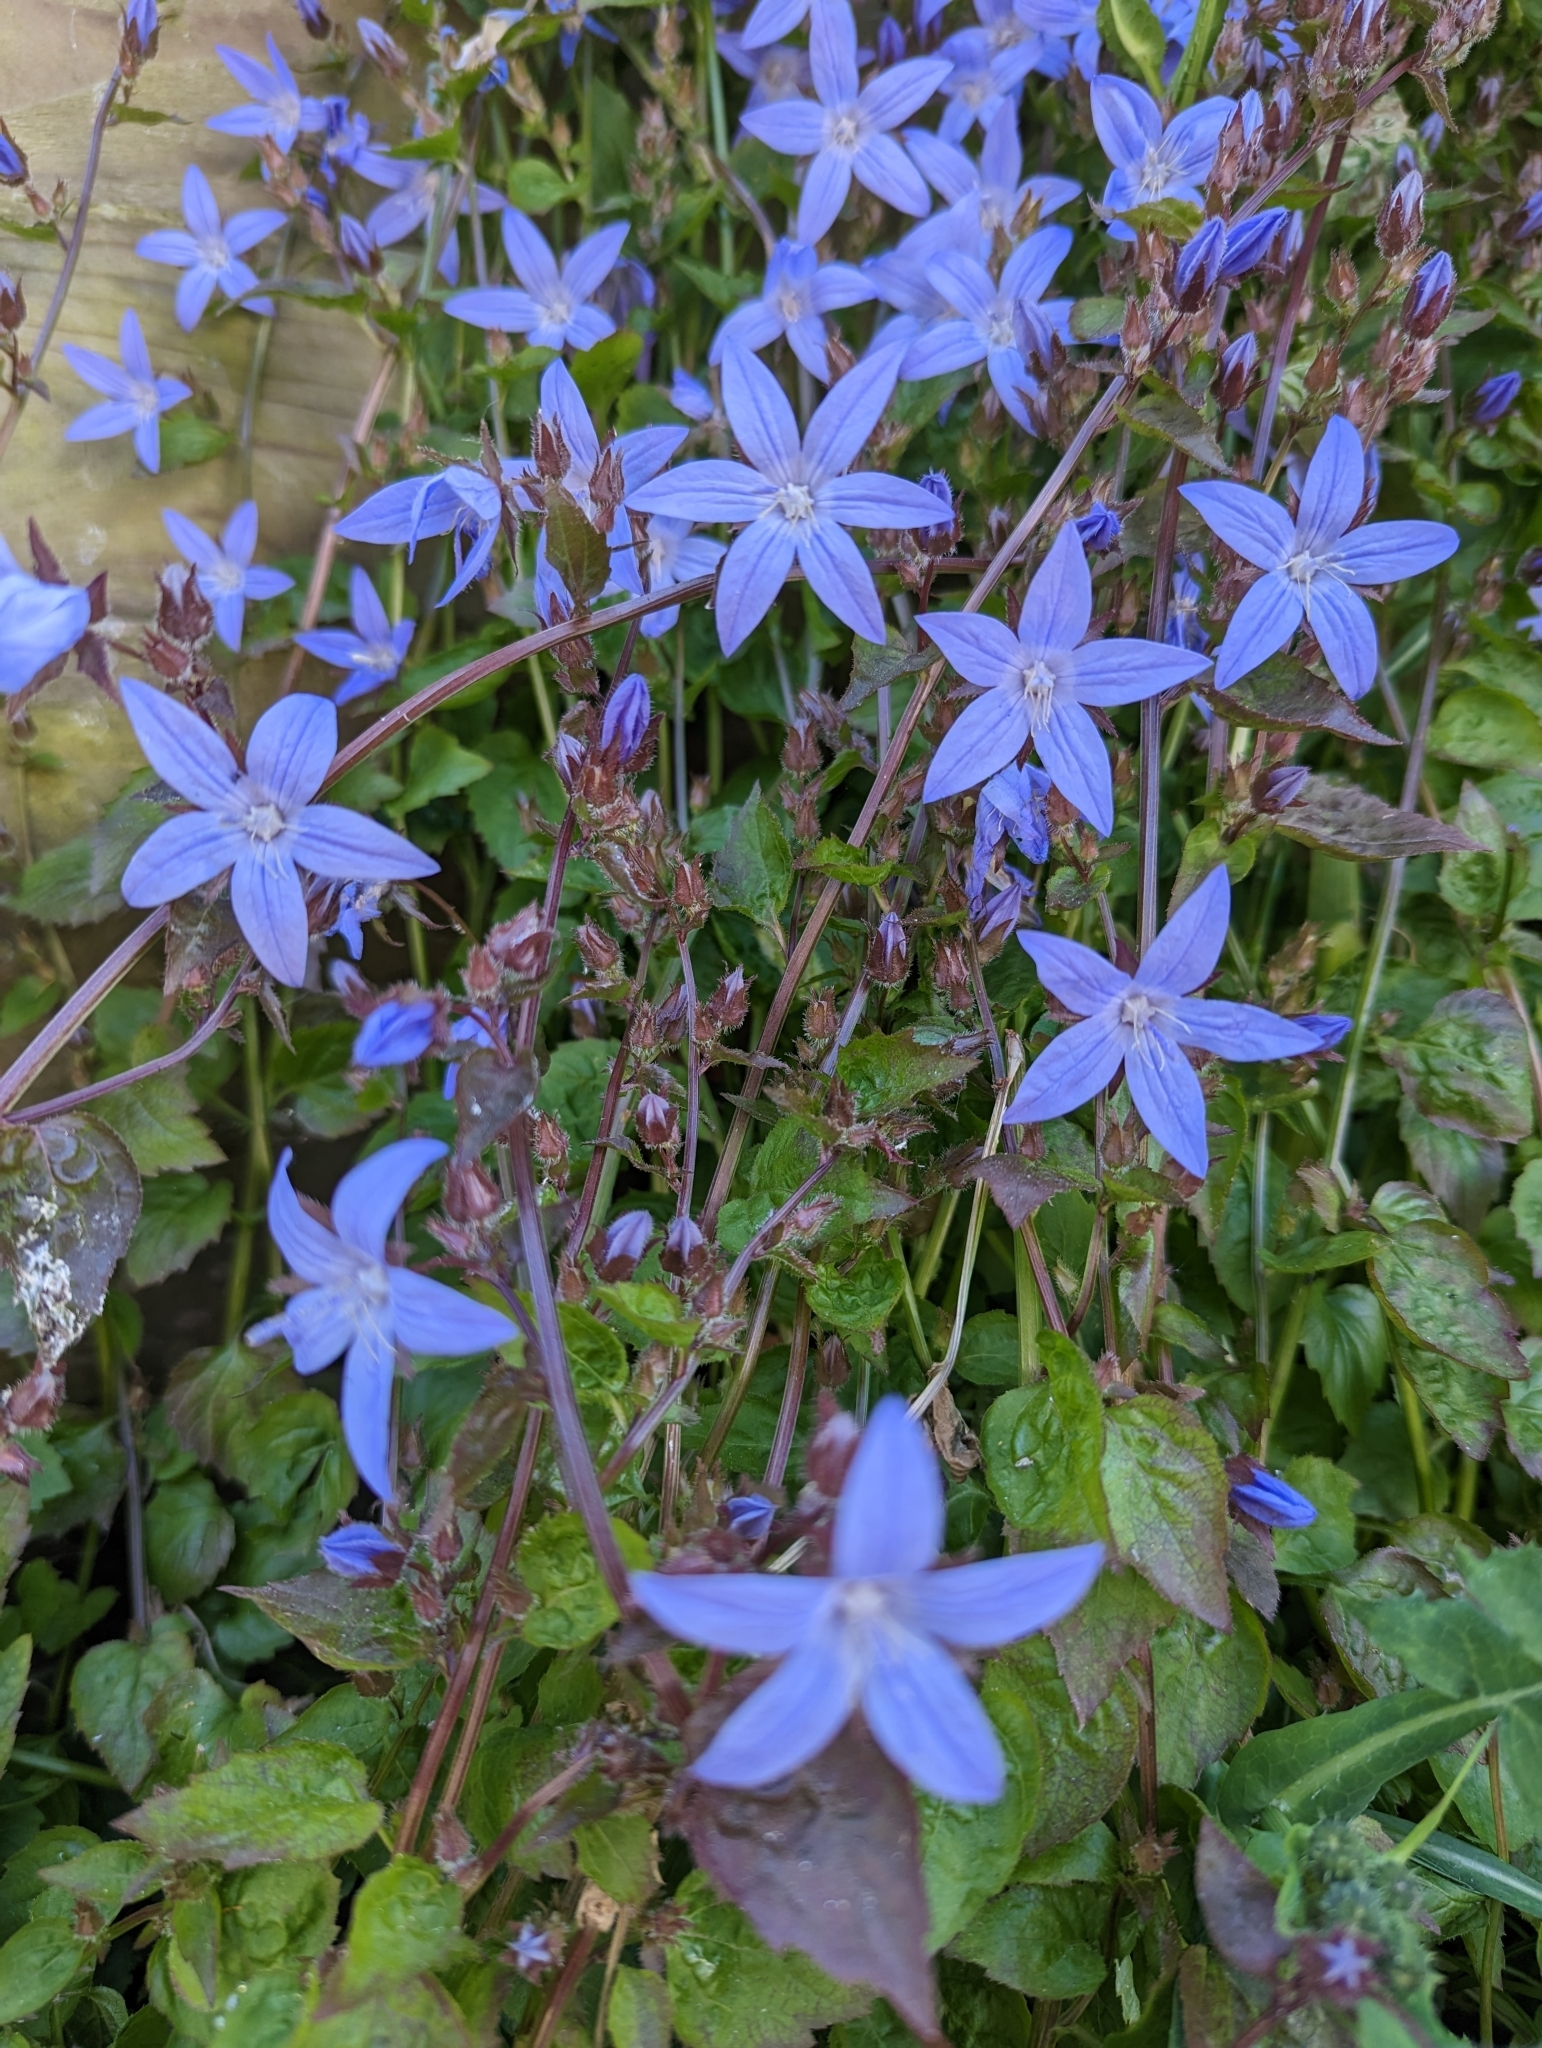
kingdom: Plantae
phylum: Tracheophyta
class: Magnoliopsida
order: Asterales
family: Campanulaceae
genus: Campanula
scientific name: Campanula poscharskyana
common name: Trailing bellflower
